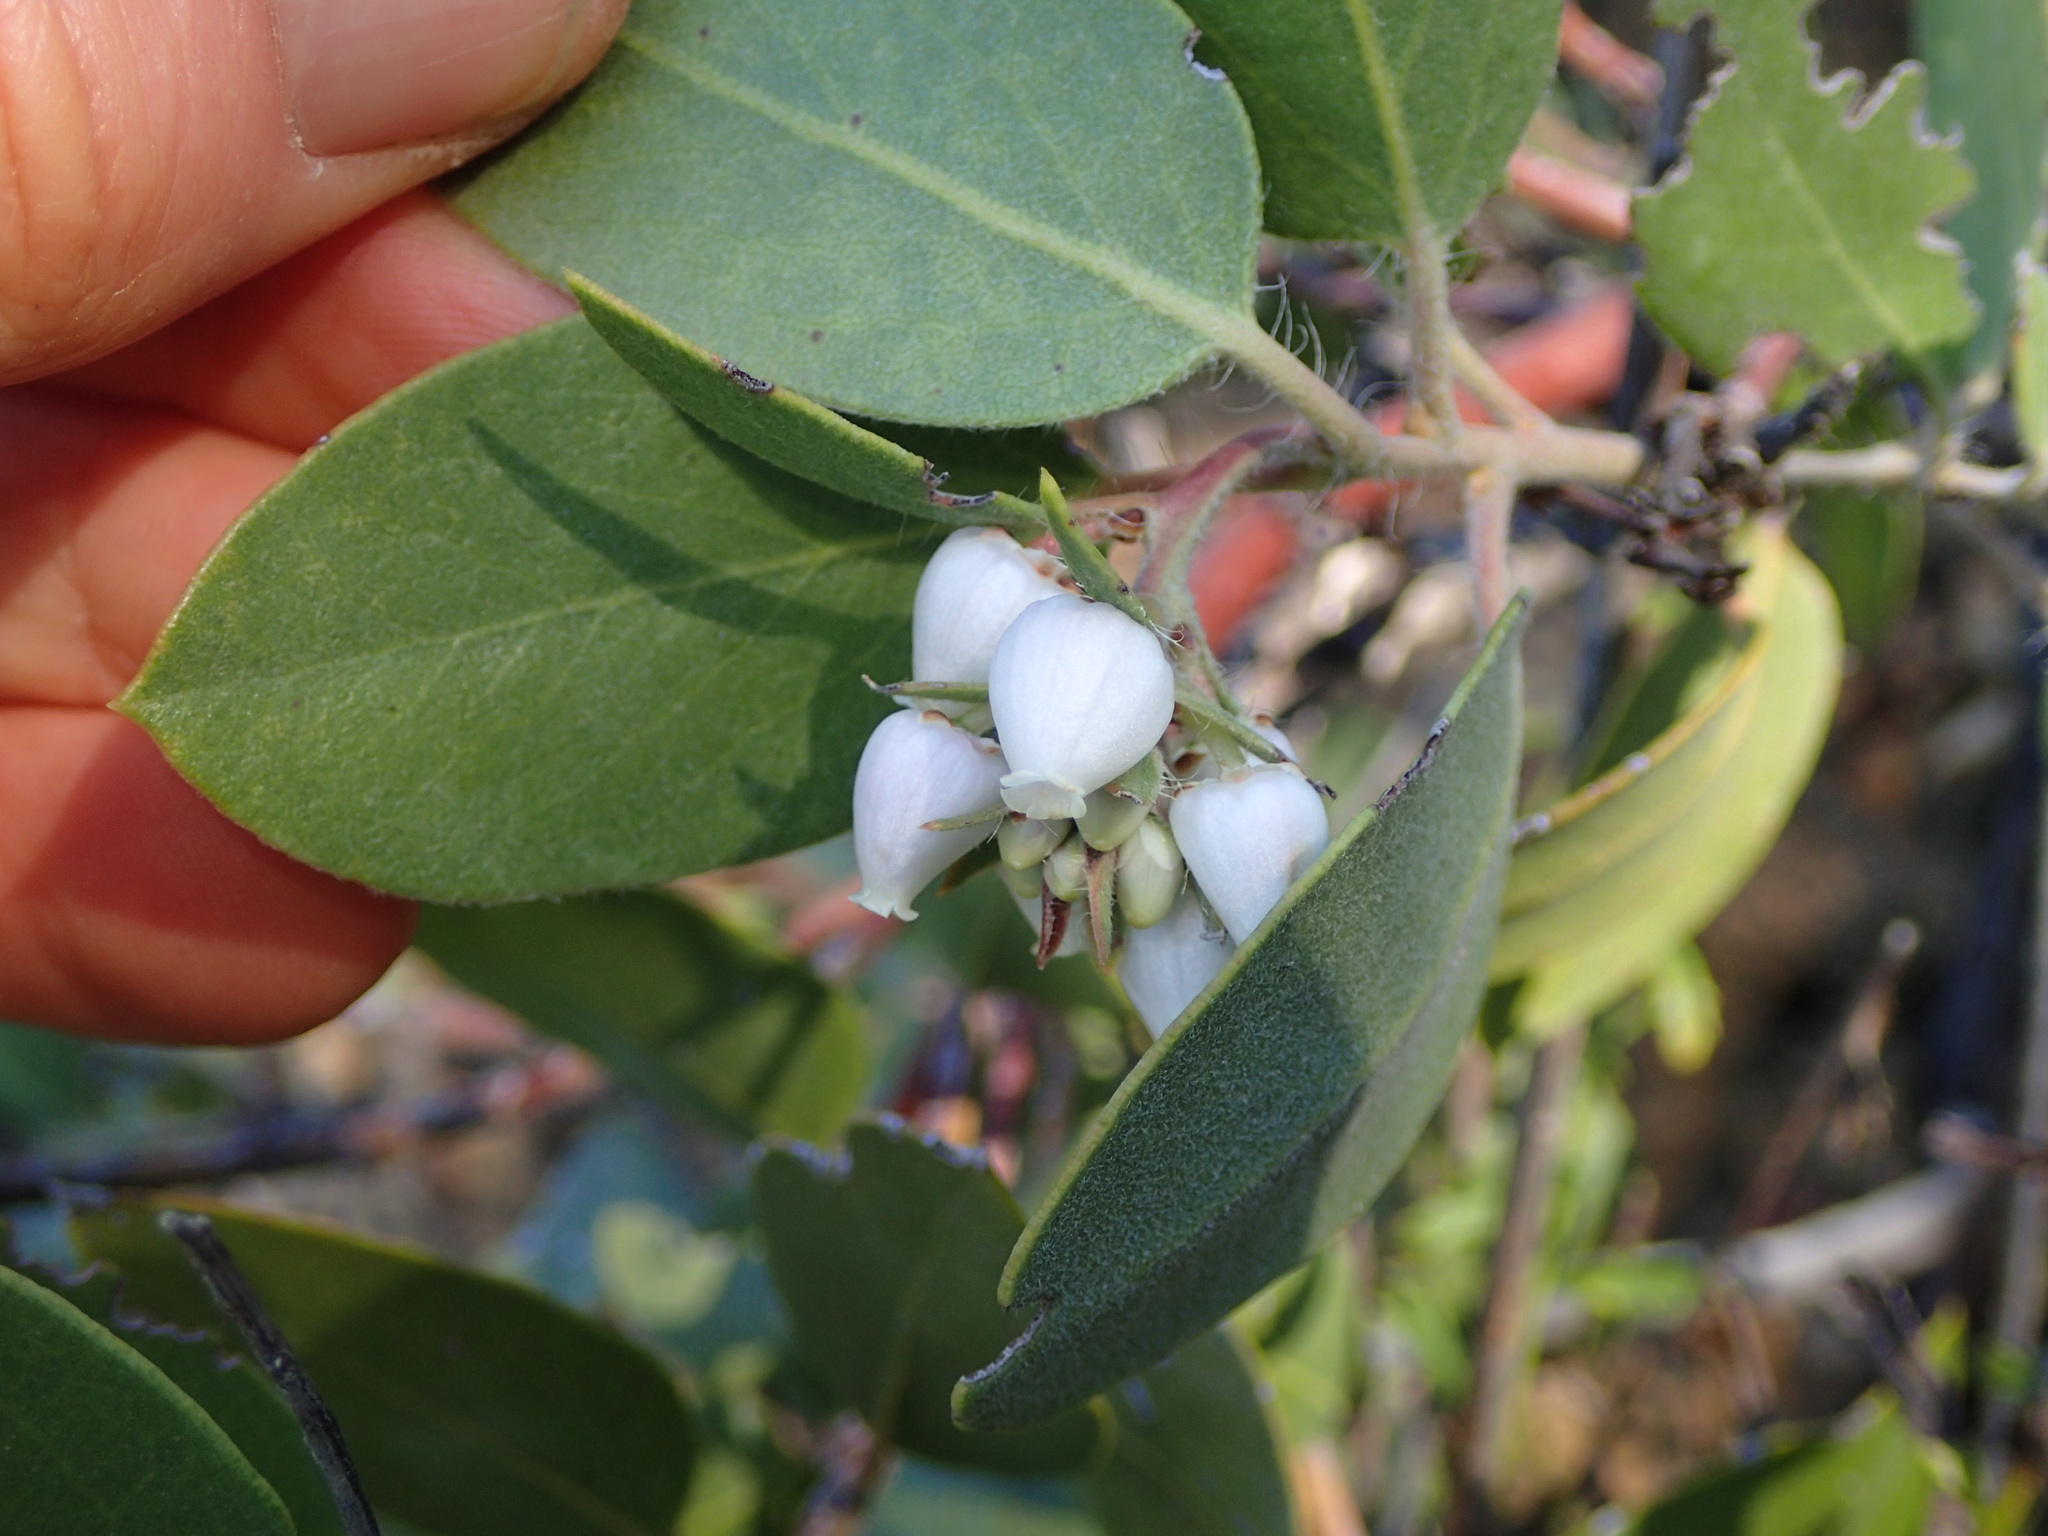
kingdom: Plantae
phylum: Tracheophyta
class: Magnoliopsida
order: Ericales
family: Ericaceae
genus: Arctostaphylos
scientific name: Arctostaphylos crustacea
